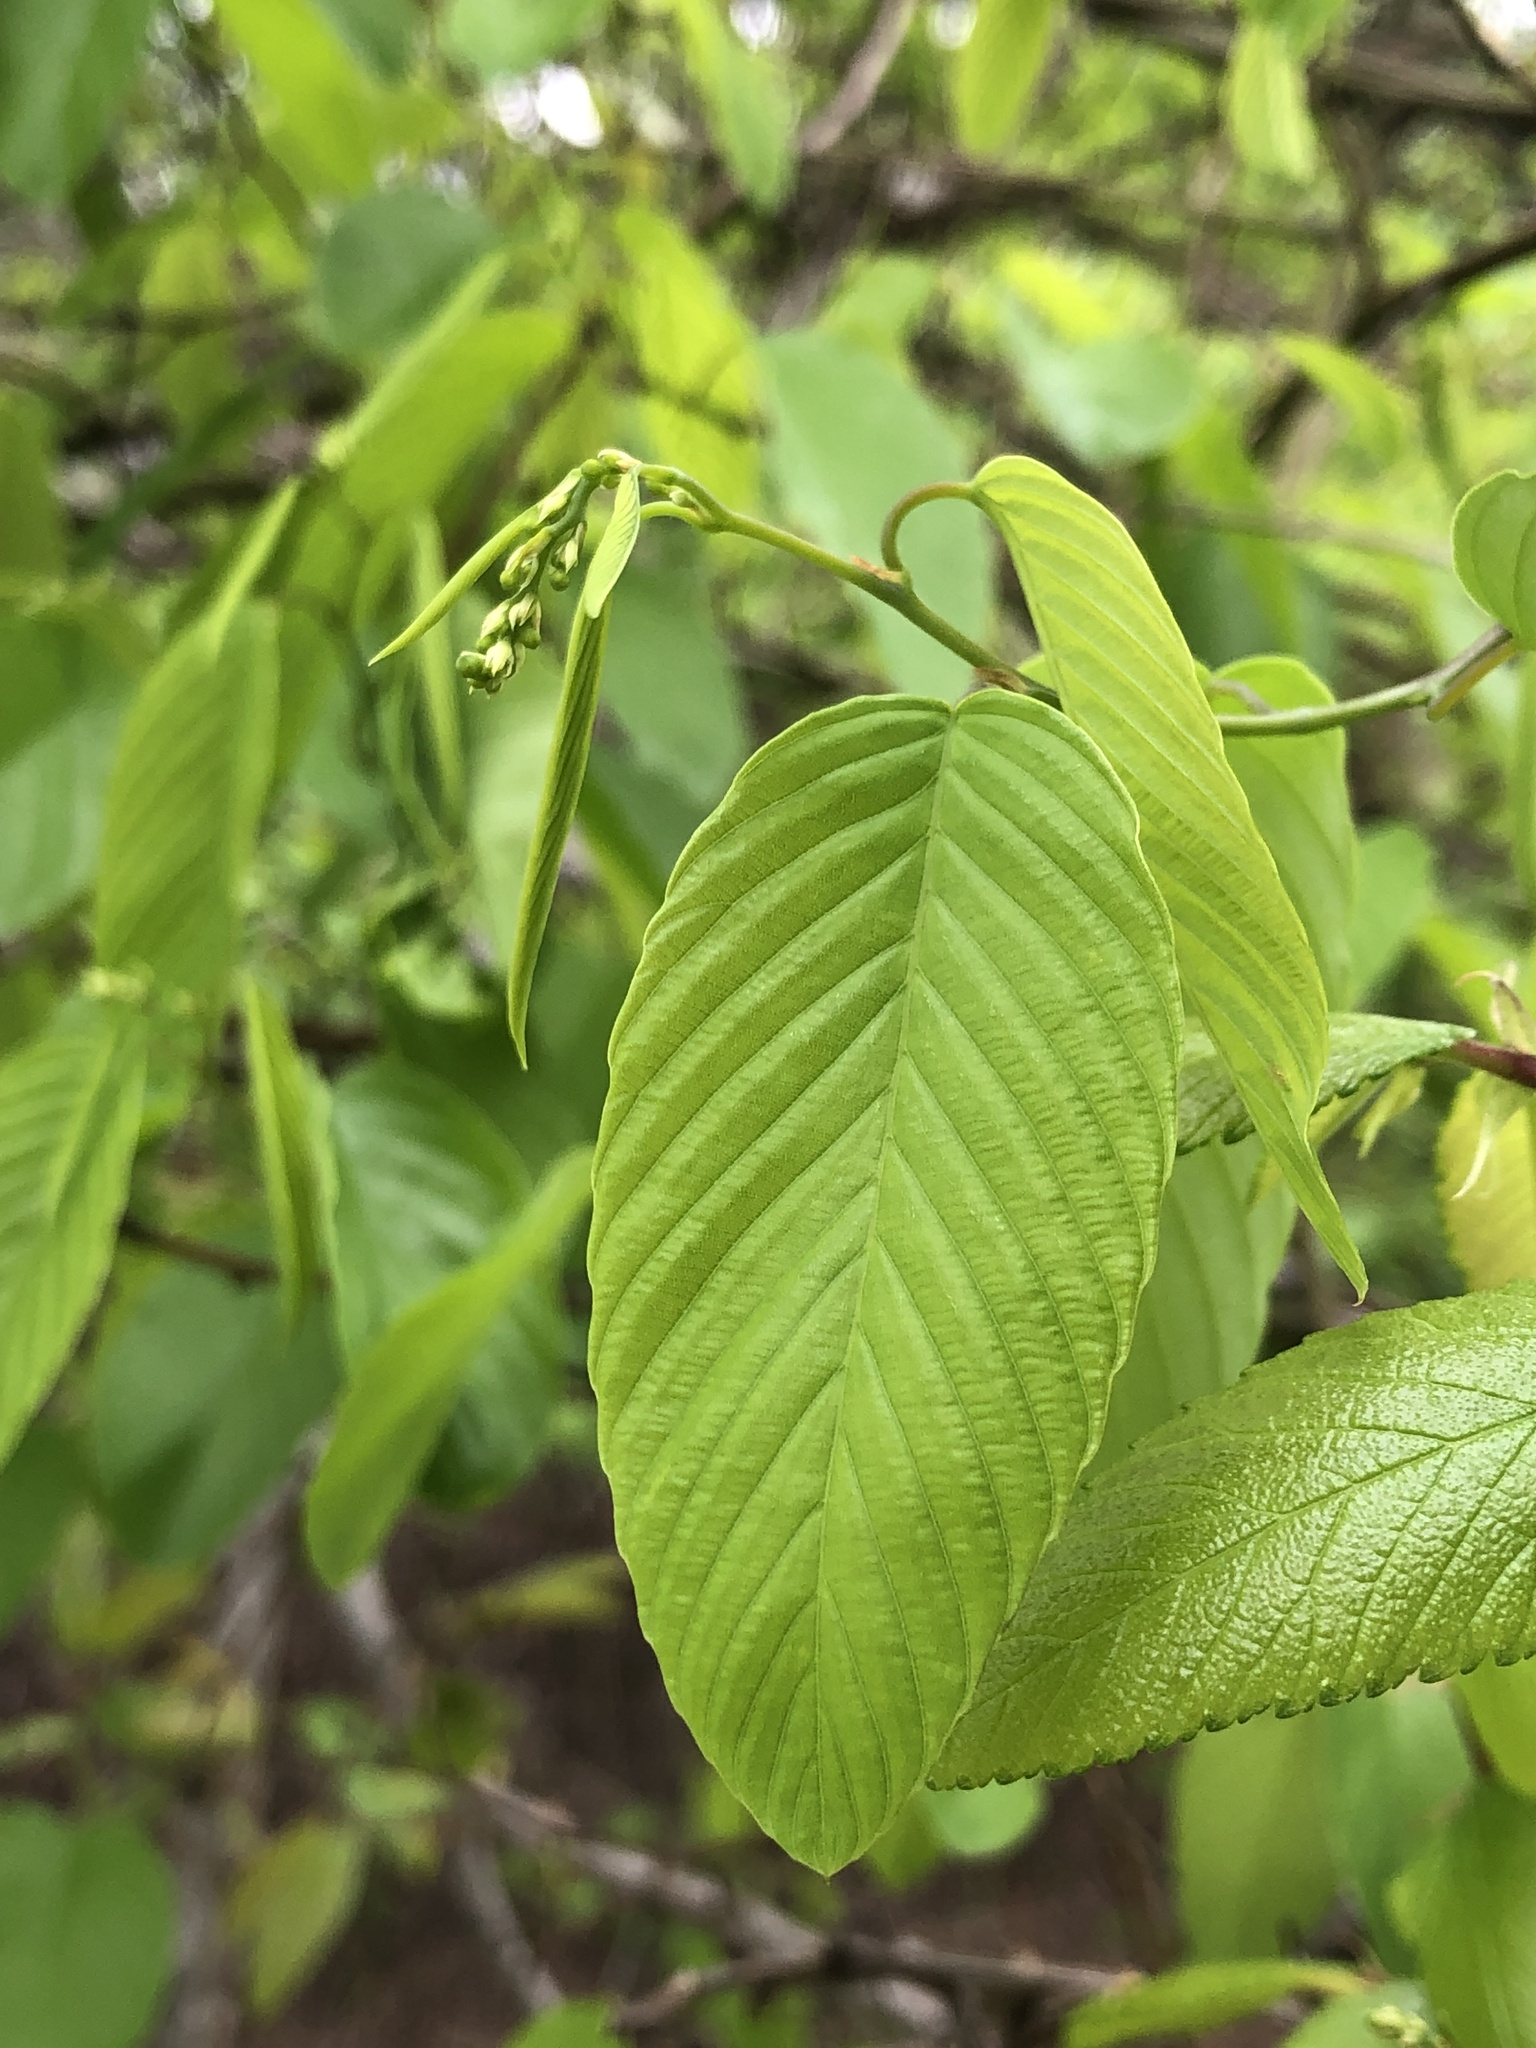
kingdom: Plantae
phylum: Tracheophyta
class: Magnoliopsida
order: Rosales
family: Rhamnaceae
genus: Berchemia
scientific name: Berchemia scandens
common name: Supplejack
